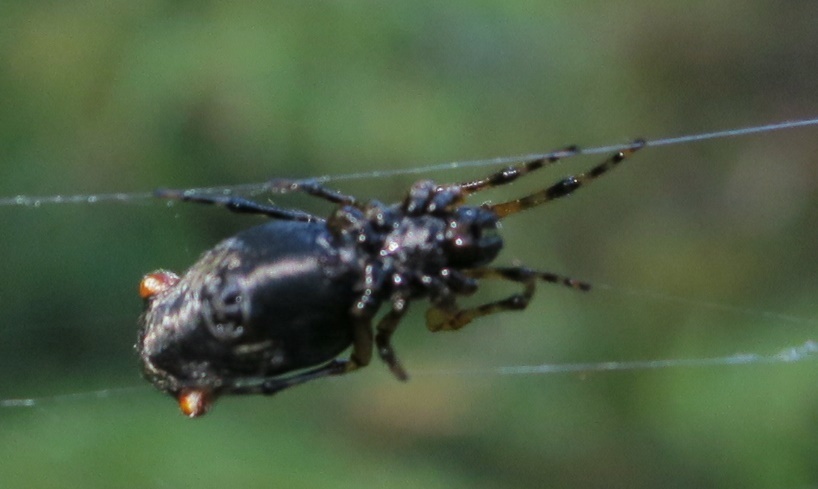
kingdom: Animalia
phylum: Arthropoda
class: Arachnida
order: Araneae
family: Araneidae
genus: Cyclosa
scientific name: Cyclosa trilobata
